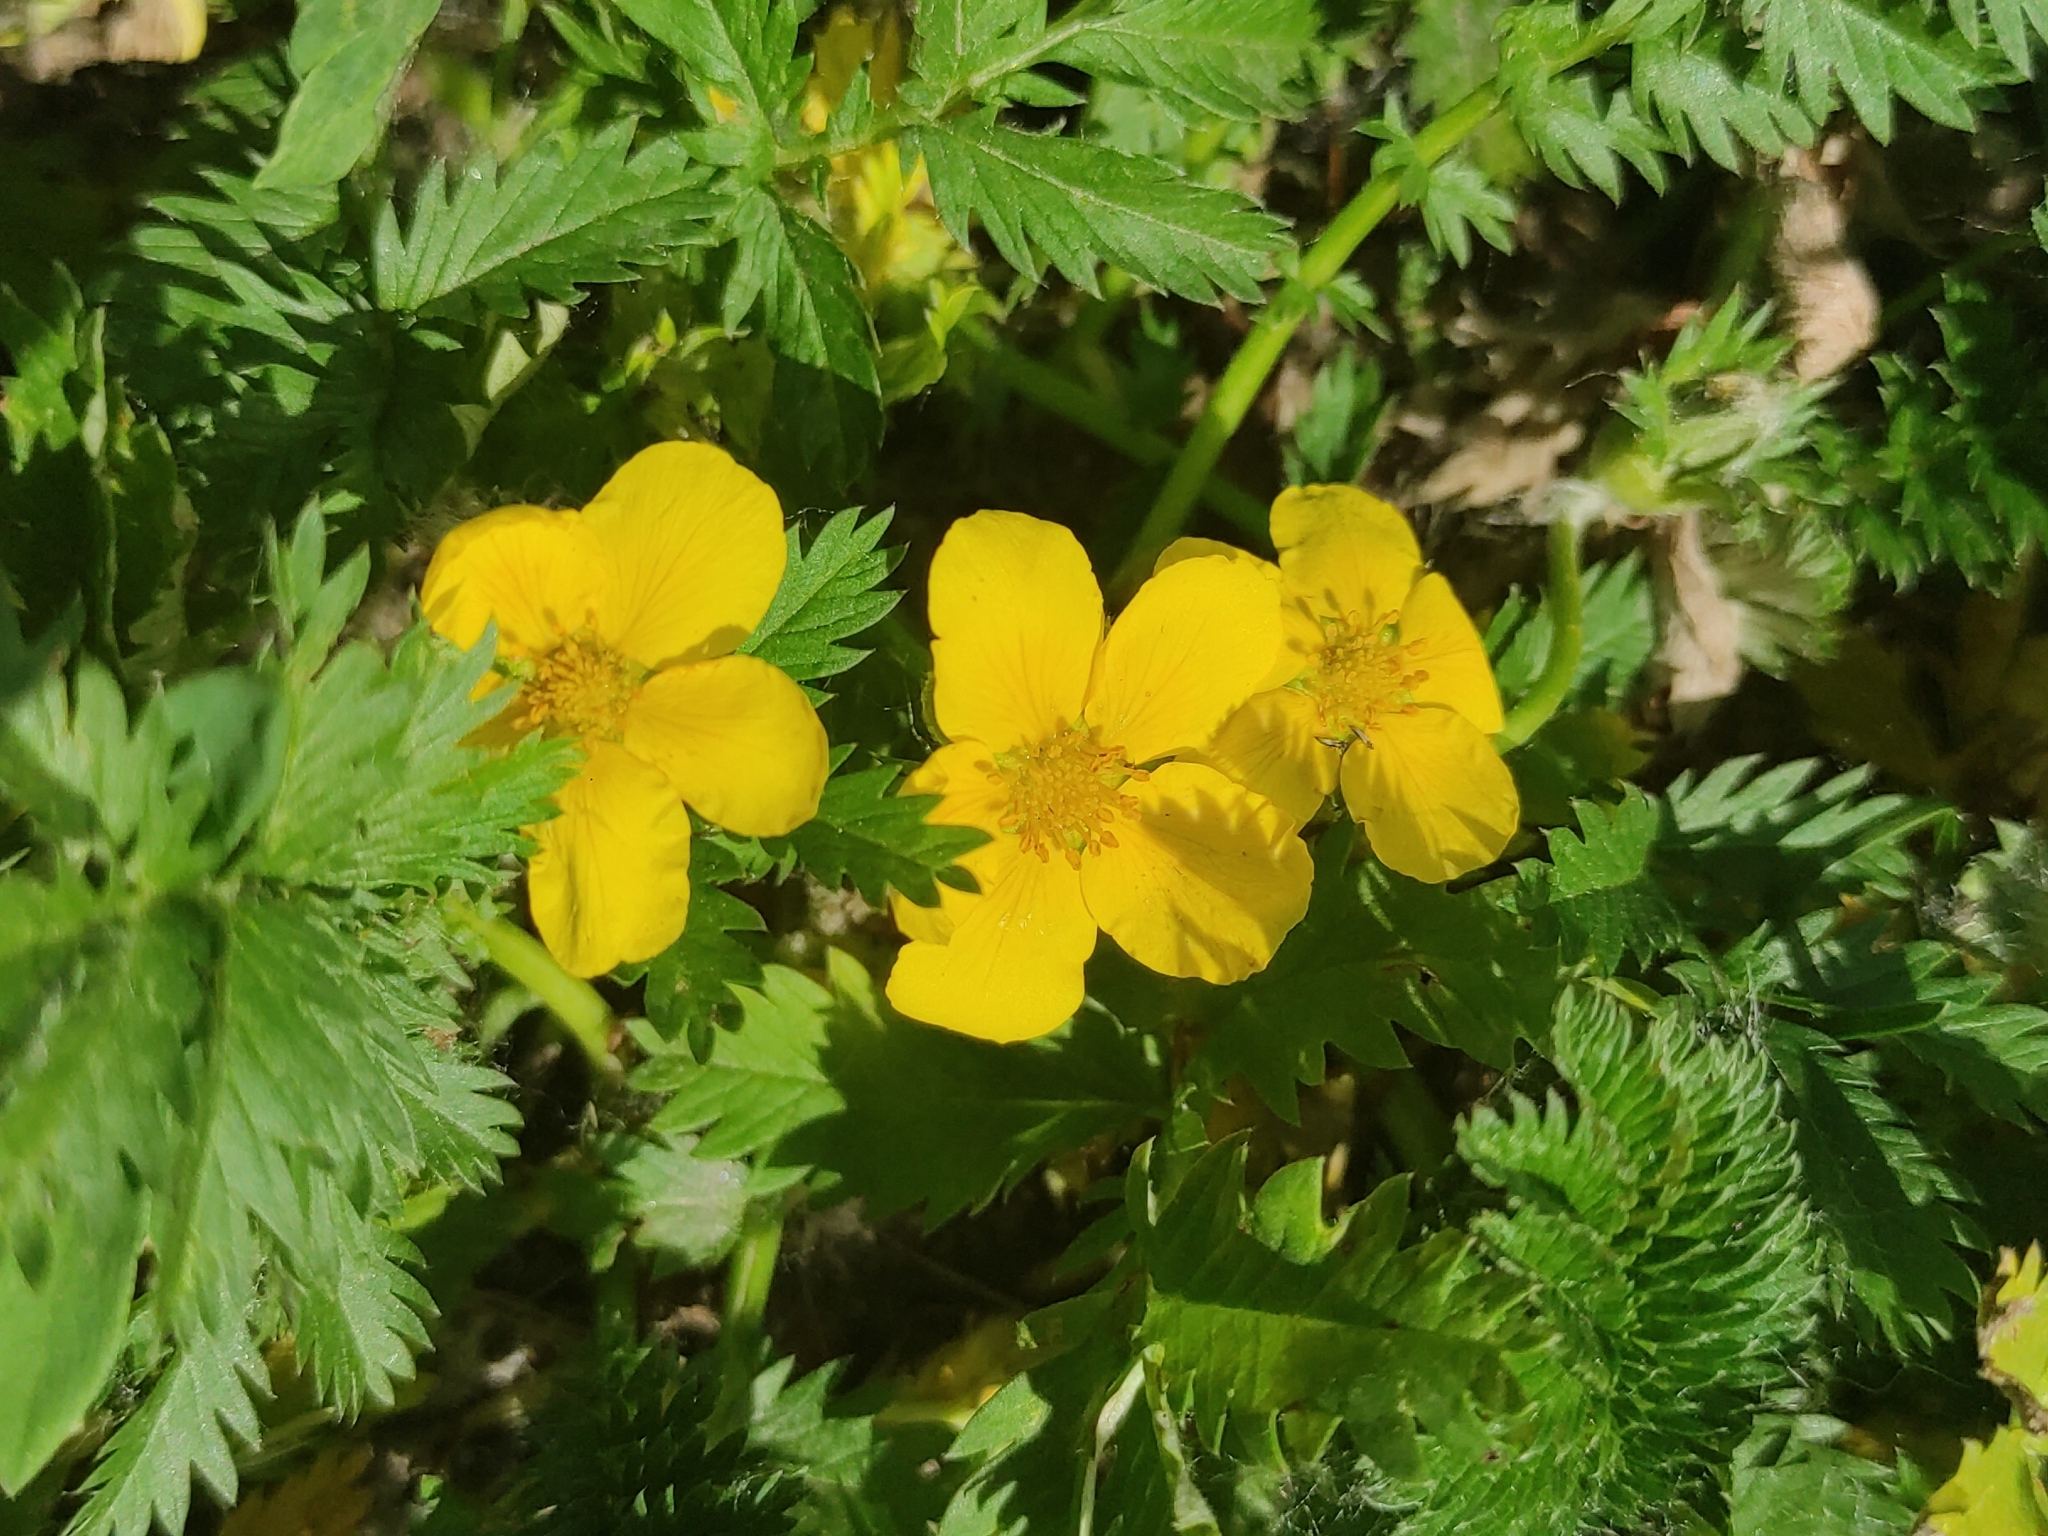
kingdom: Plantae
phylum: Tracheophyta
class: Magnoliopsida
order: Rosales
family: Rosaceae
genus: Argentina
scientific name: Argentina anserina
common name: Common silverweed
